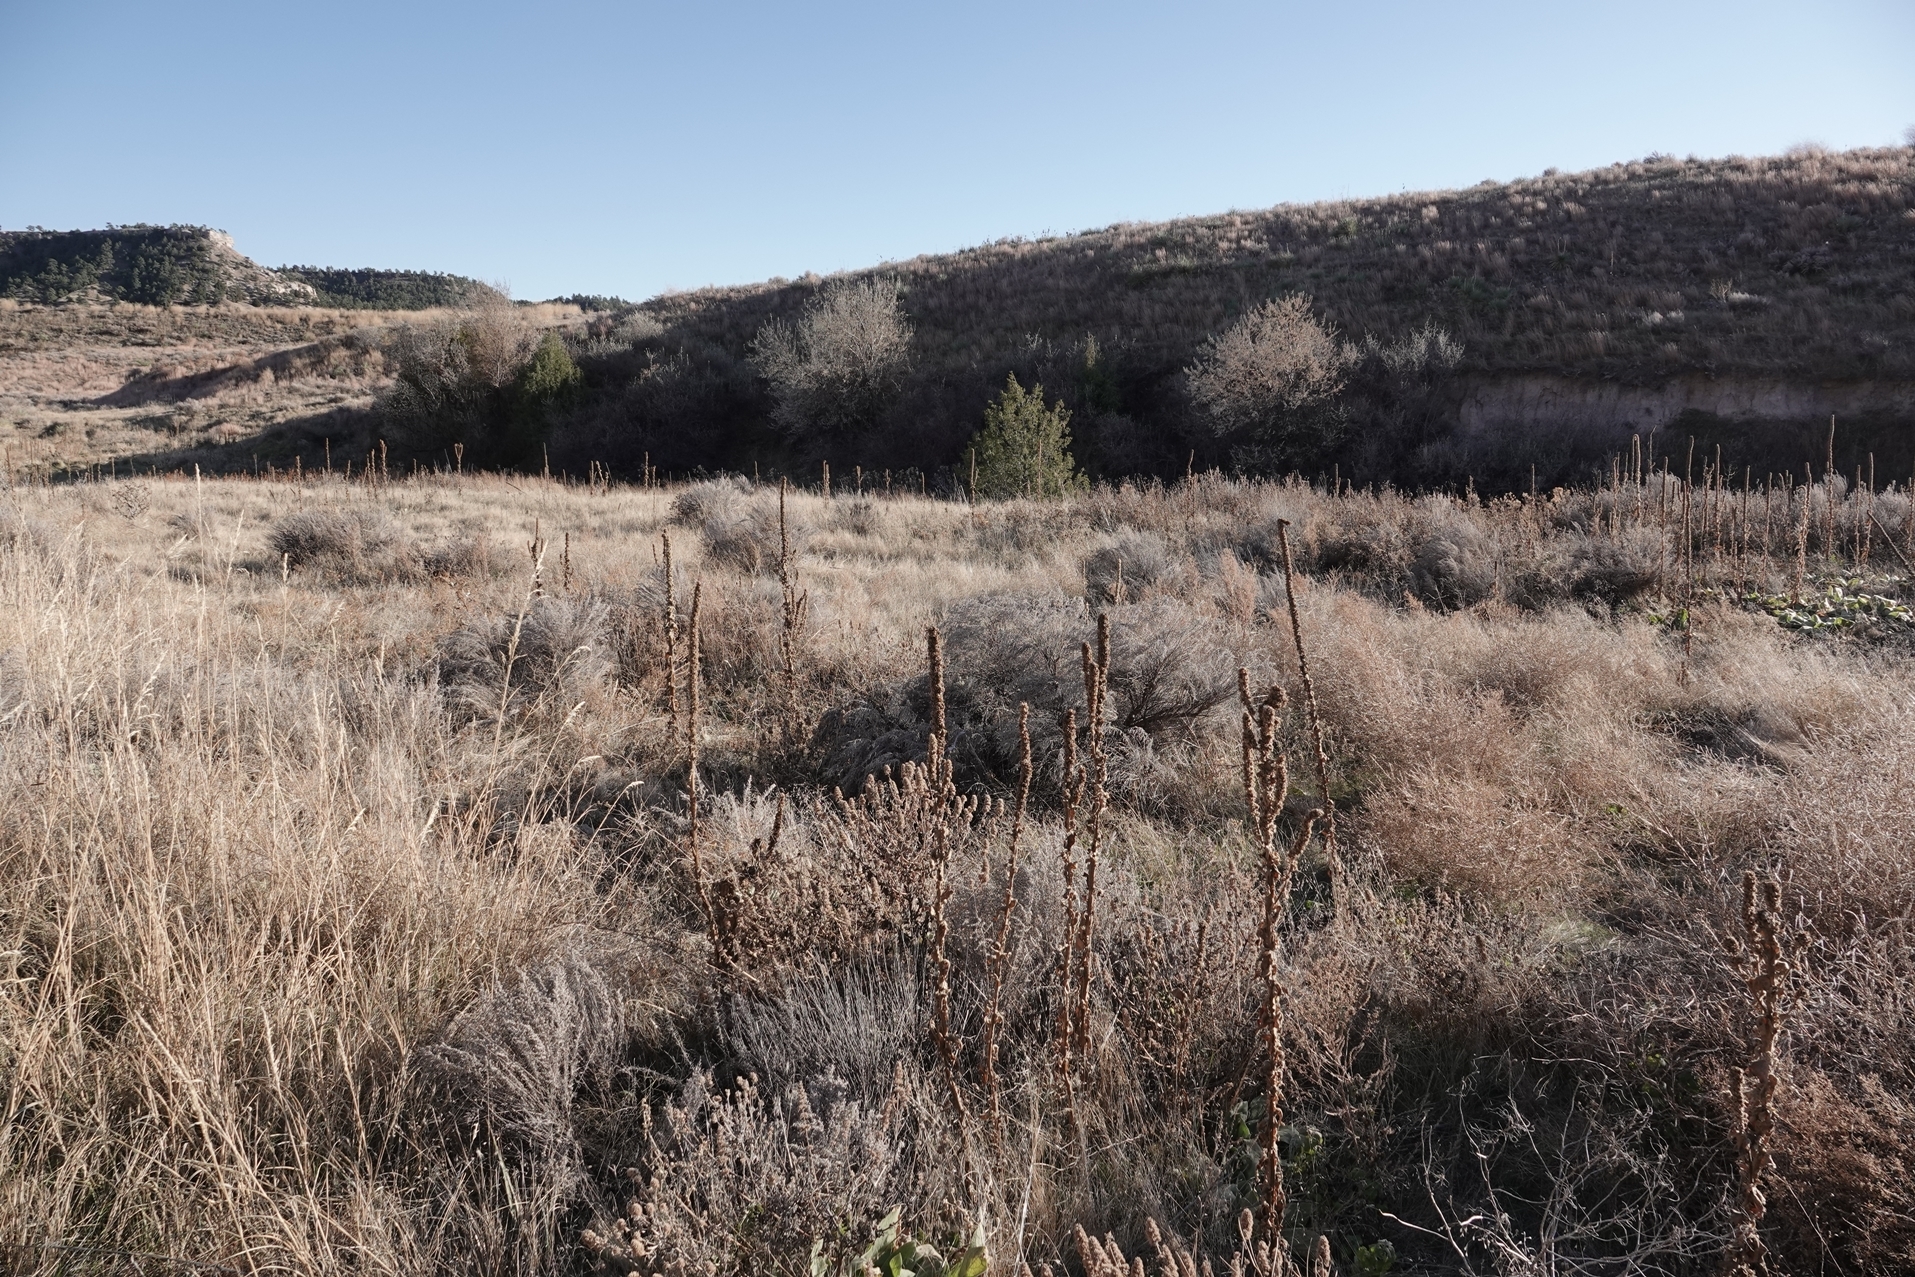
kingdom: Plantae
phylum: Tracheophyta
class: Magnoliopsida
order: Lamiales
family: Scrophulariaceae
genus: Verbascum
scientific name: Verbascum thapsus
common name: Common mullein
